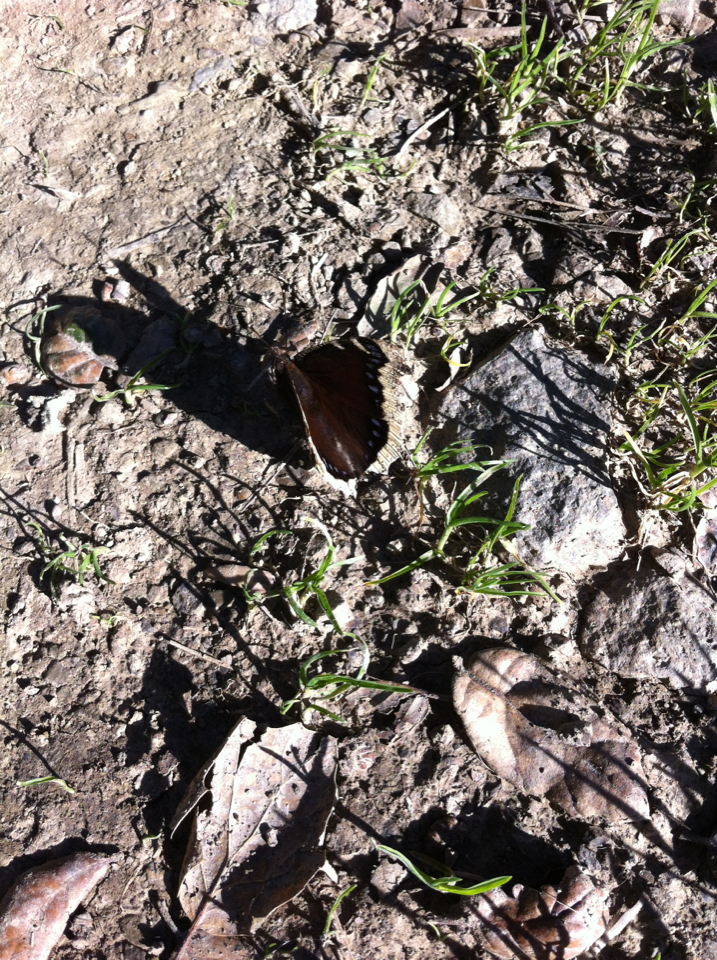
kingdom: Animalia
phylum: Arthropoda
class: Insecta
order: Lepidoptera
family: Nymphalidae
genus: Nymphalis
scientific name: Nymphalis antiopa
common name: Camberwell beauty
